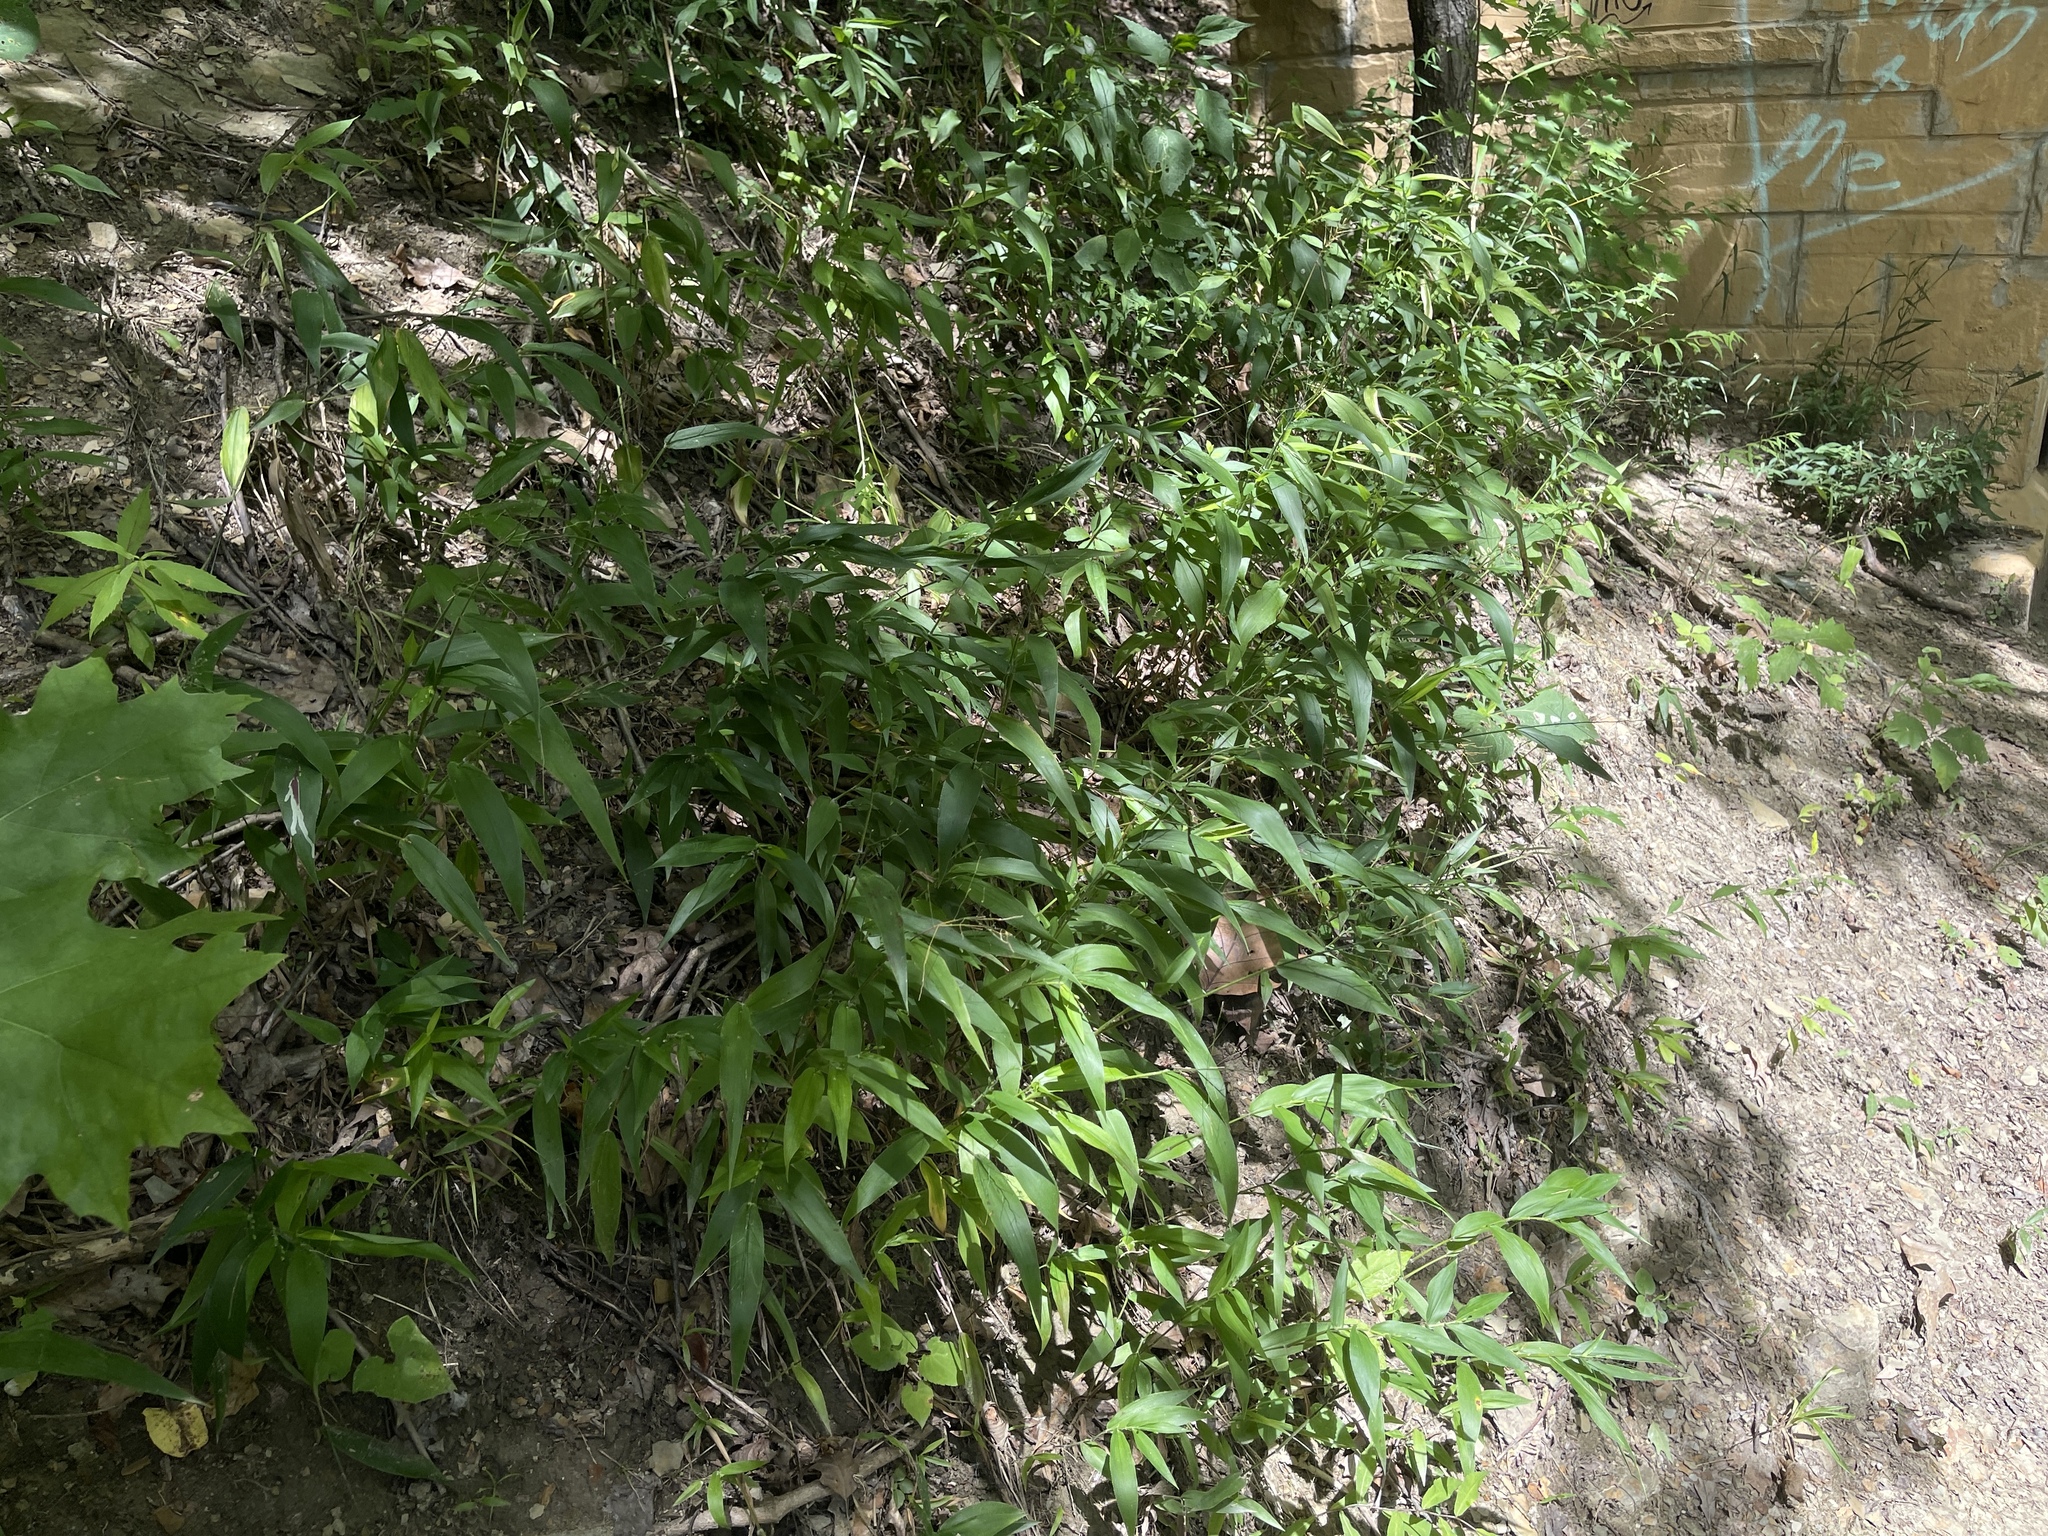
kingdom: Plantae
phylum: Tracheophyta
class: Liliopsida
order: Poales
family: Poaceae
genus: Dichanthelium
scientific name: Dichanthelium boscii
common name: Bosc's panic grass
